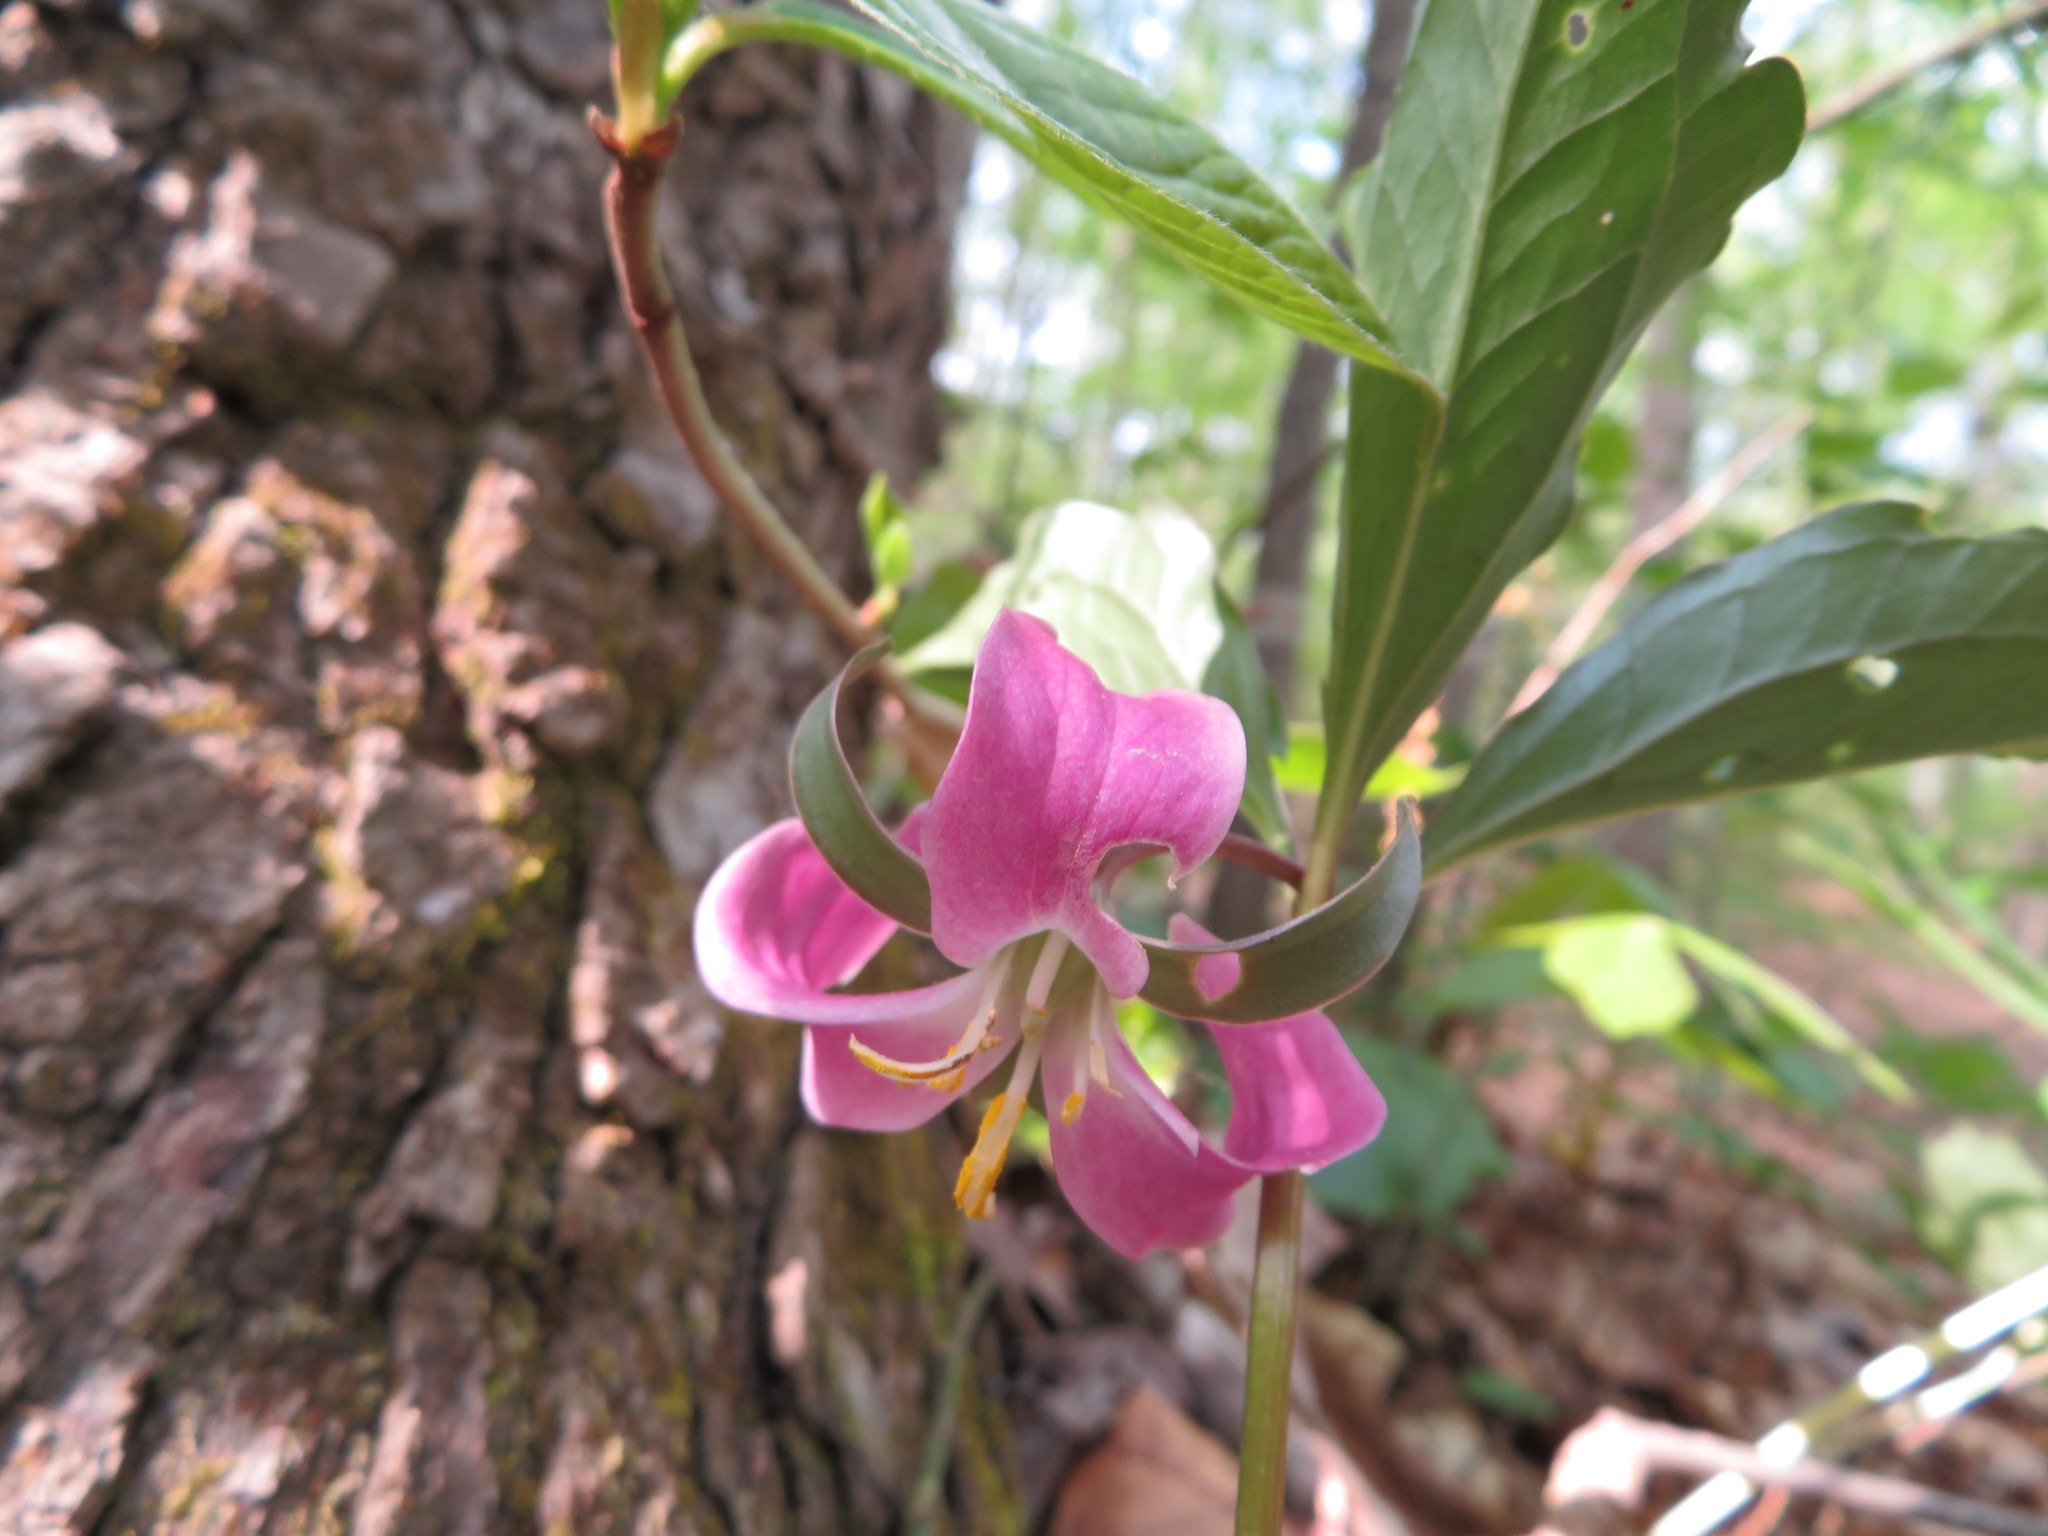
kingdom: Plantae
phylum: Tracheophyta
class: Liliopsida
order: Liliales
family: Melanthiaceae
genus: Trillium
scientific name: Trillium catesbaei
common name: Bashful trillium
